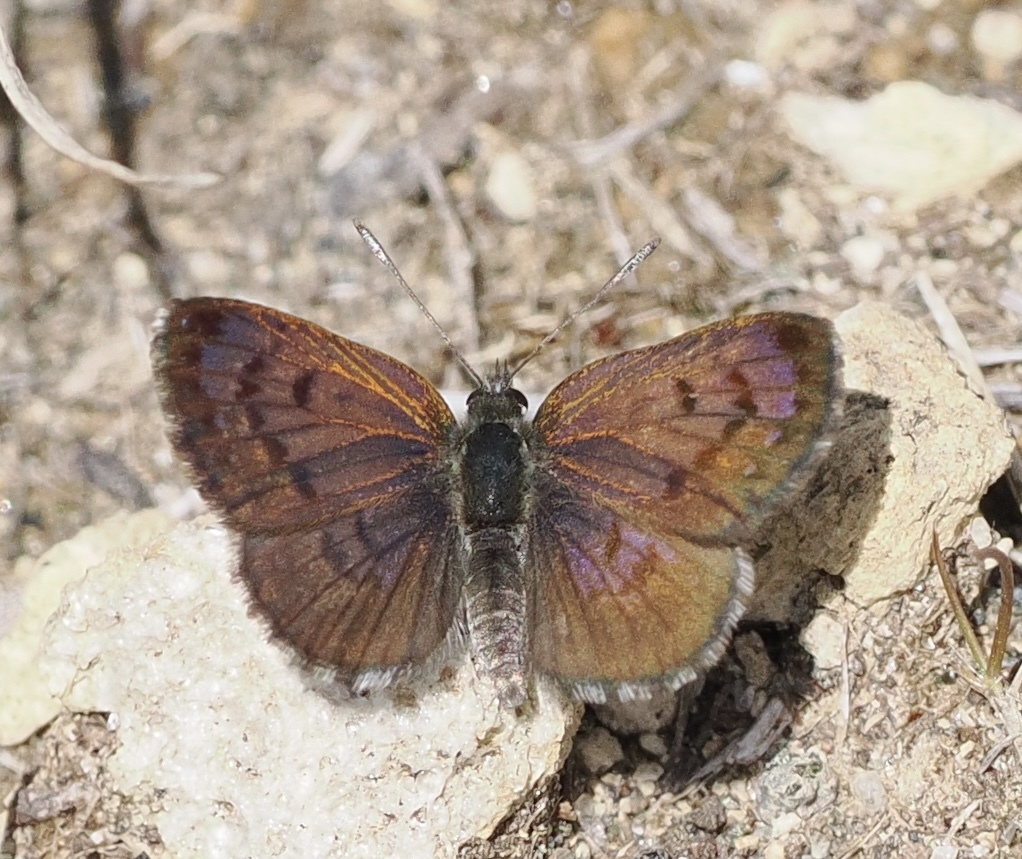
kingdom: Animalia
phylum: Arthropoda
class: Insecta
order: Lepidoptera
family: Lycaenidae
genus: Lycaena
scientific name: Lycaena boldenarum
